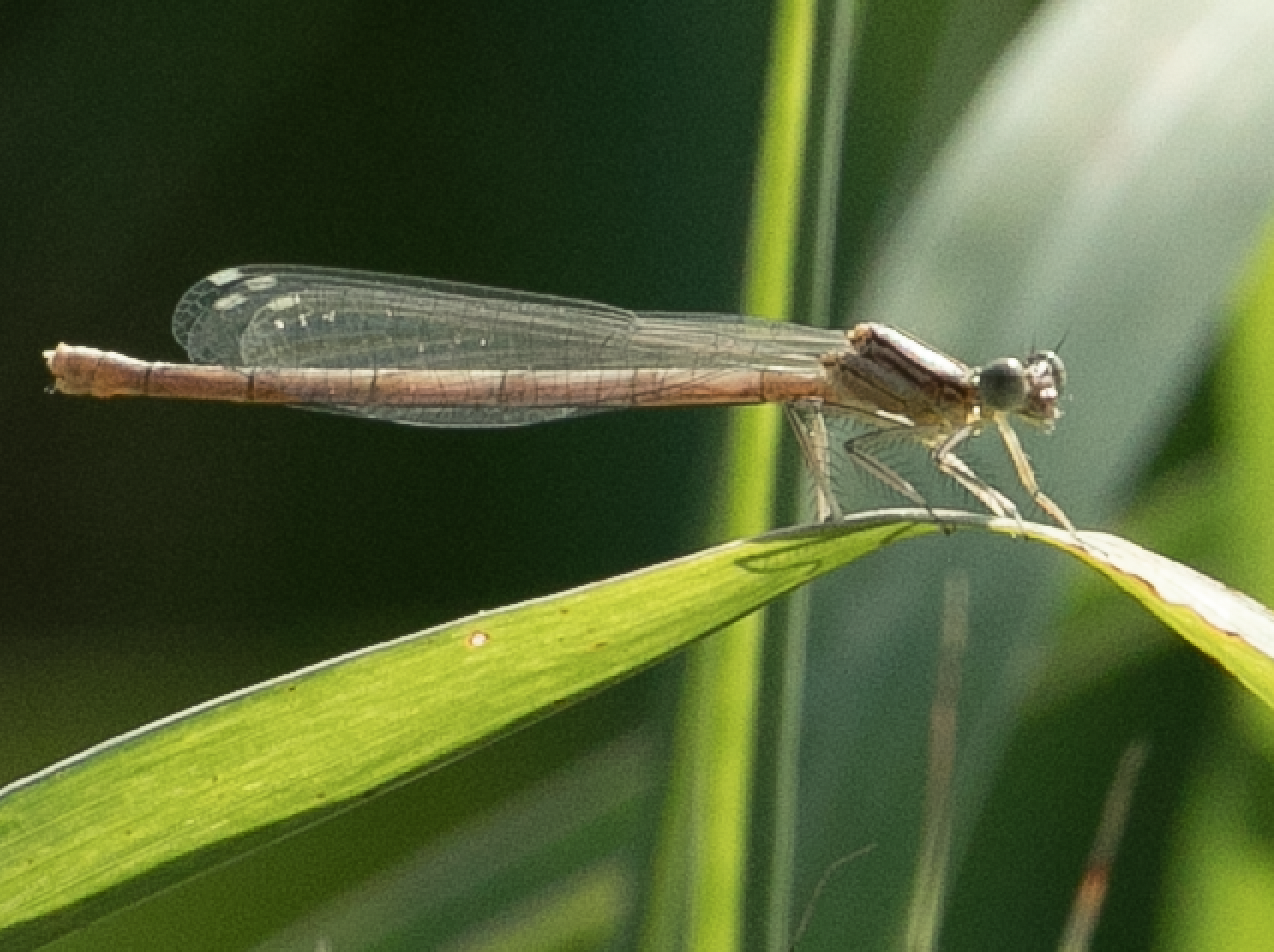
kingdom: Animalia
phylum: Arthropoda
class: Insecta
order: Odonata
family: Platycnemididae
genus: Platycnemis
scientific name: Platycnemis pennipes
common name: White-legged damselfly
